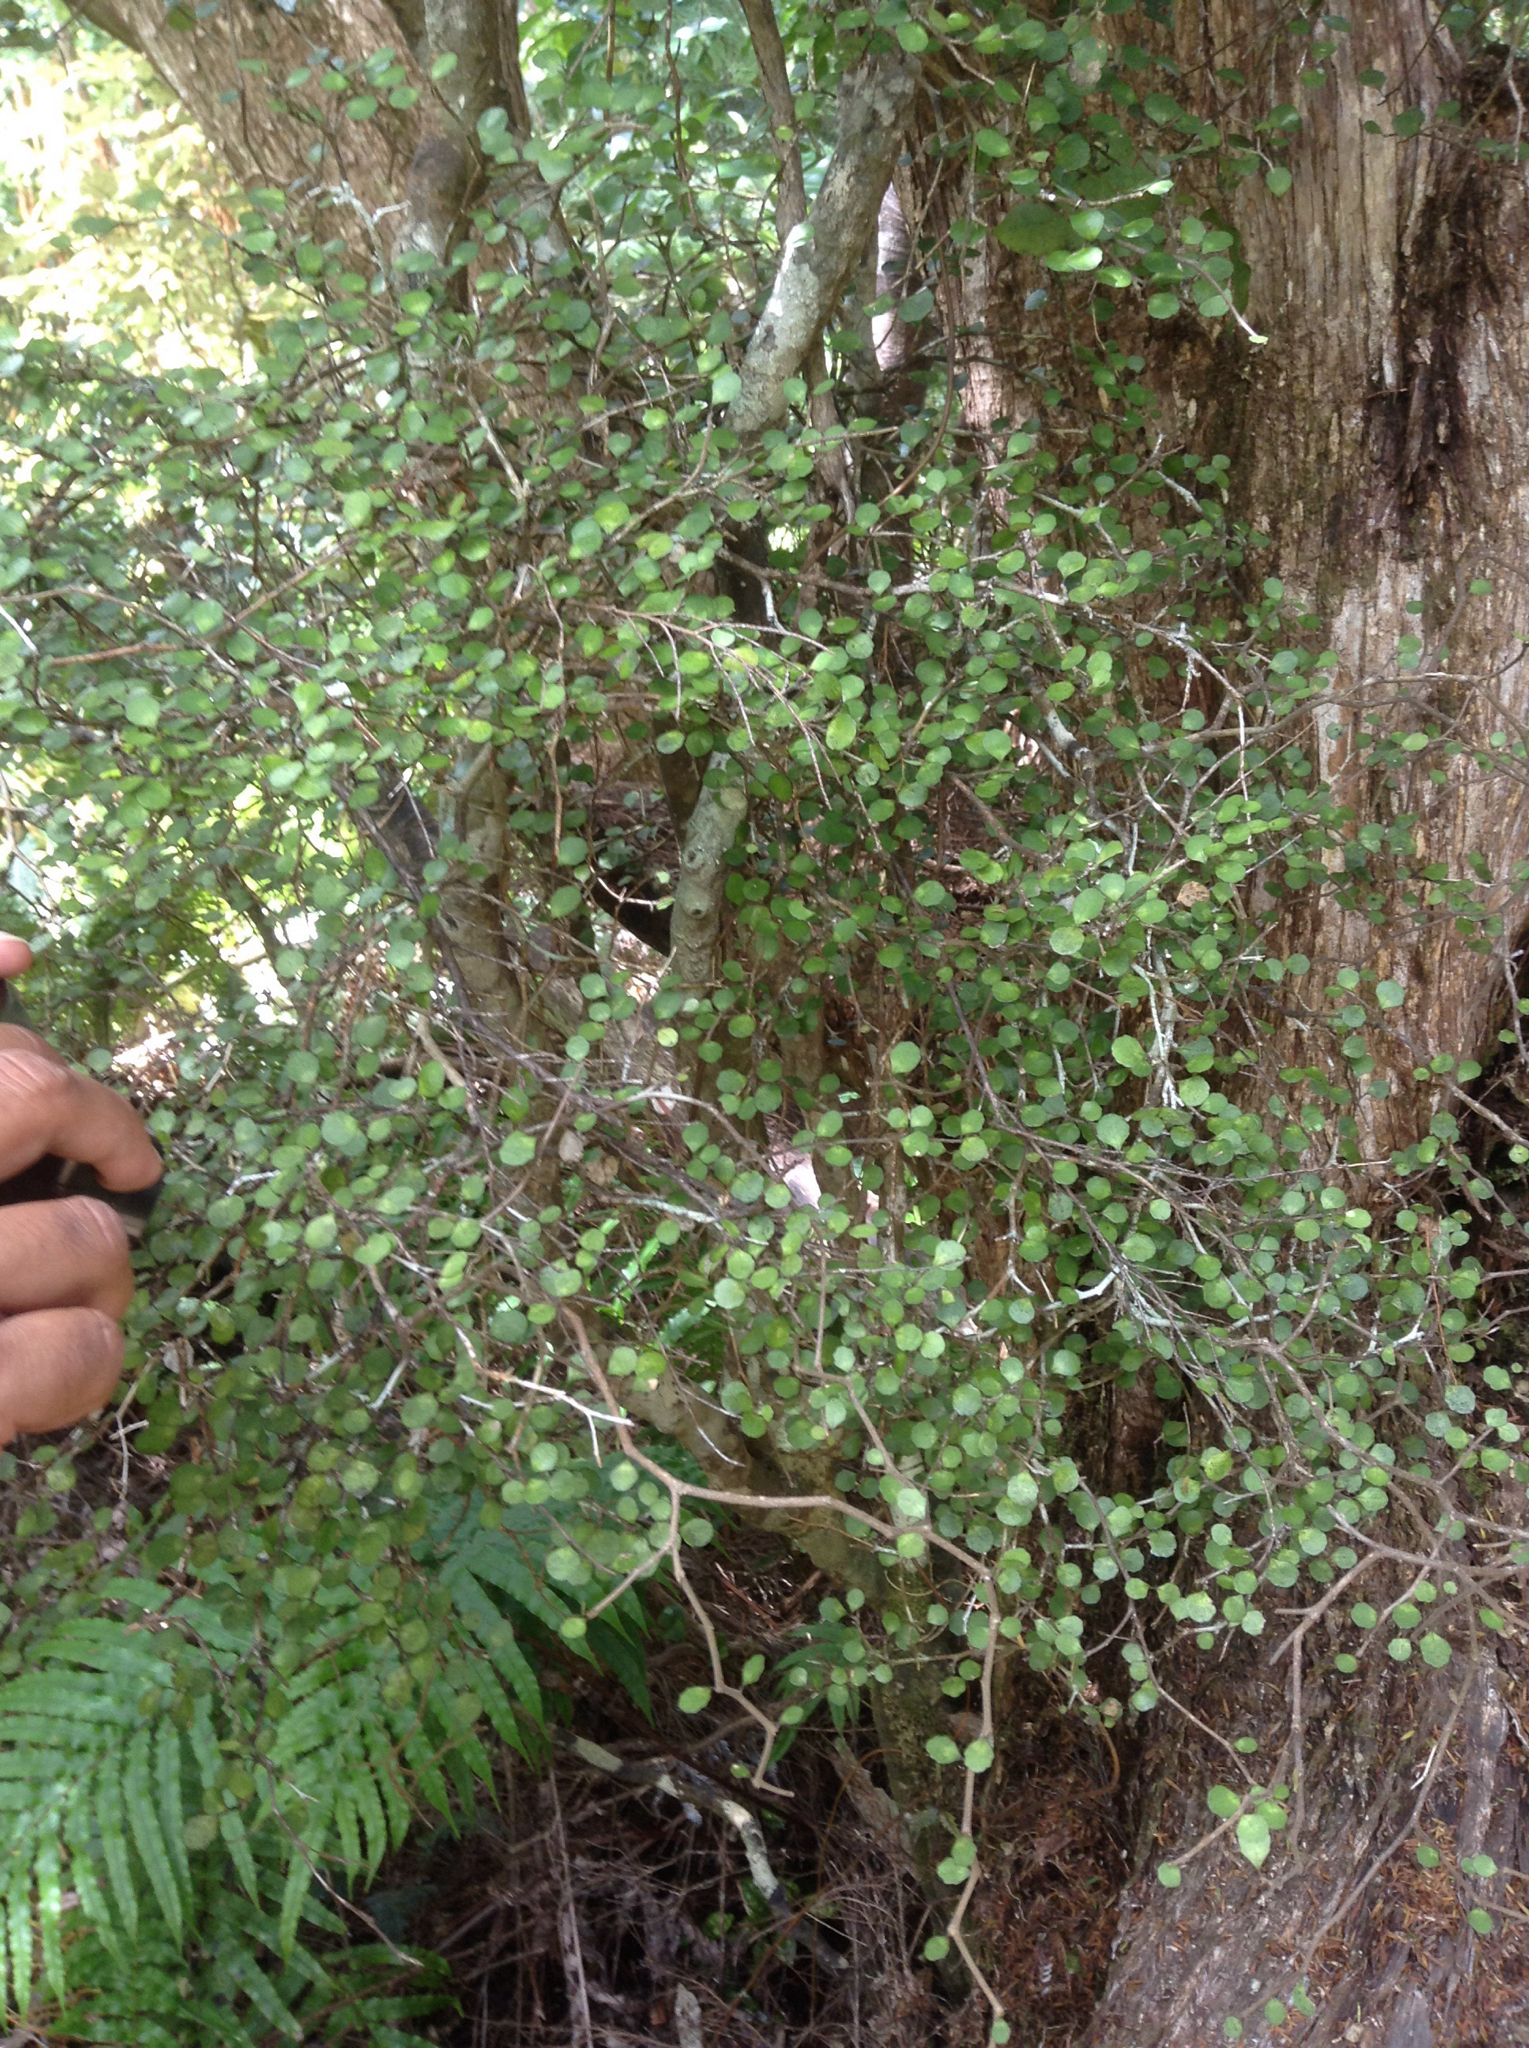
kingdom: Plantae
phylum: Tracheophyta
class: Magnoliopsida
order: Malpighiales
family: Violaceae
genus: Melicytus
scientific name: Melicytus micranthus
